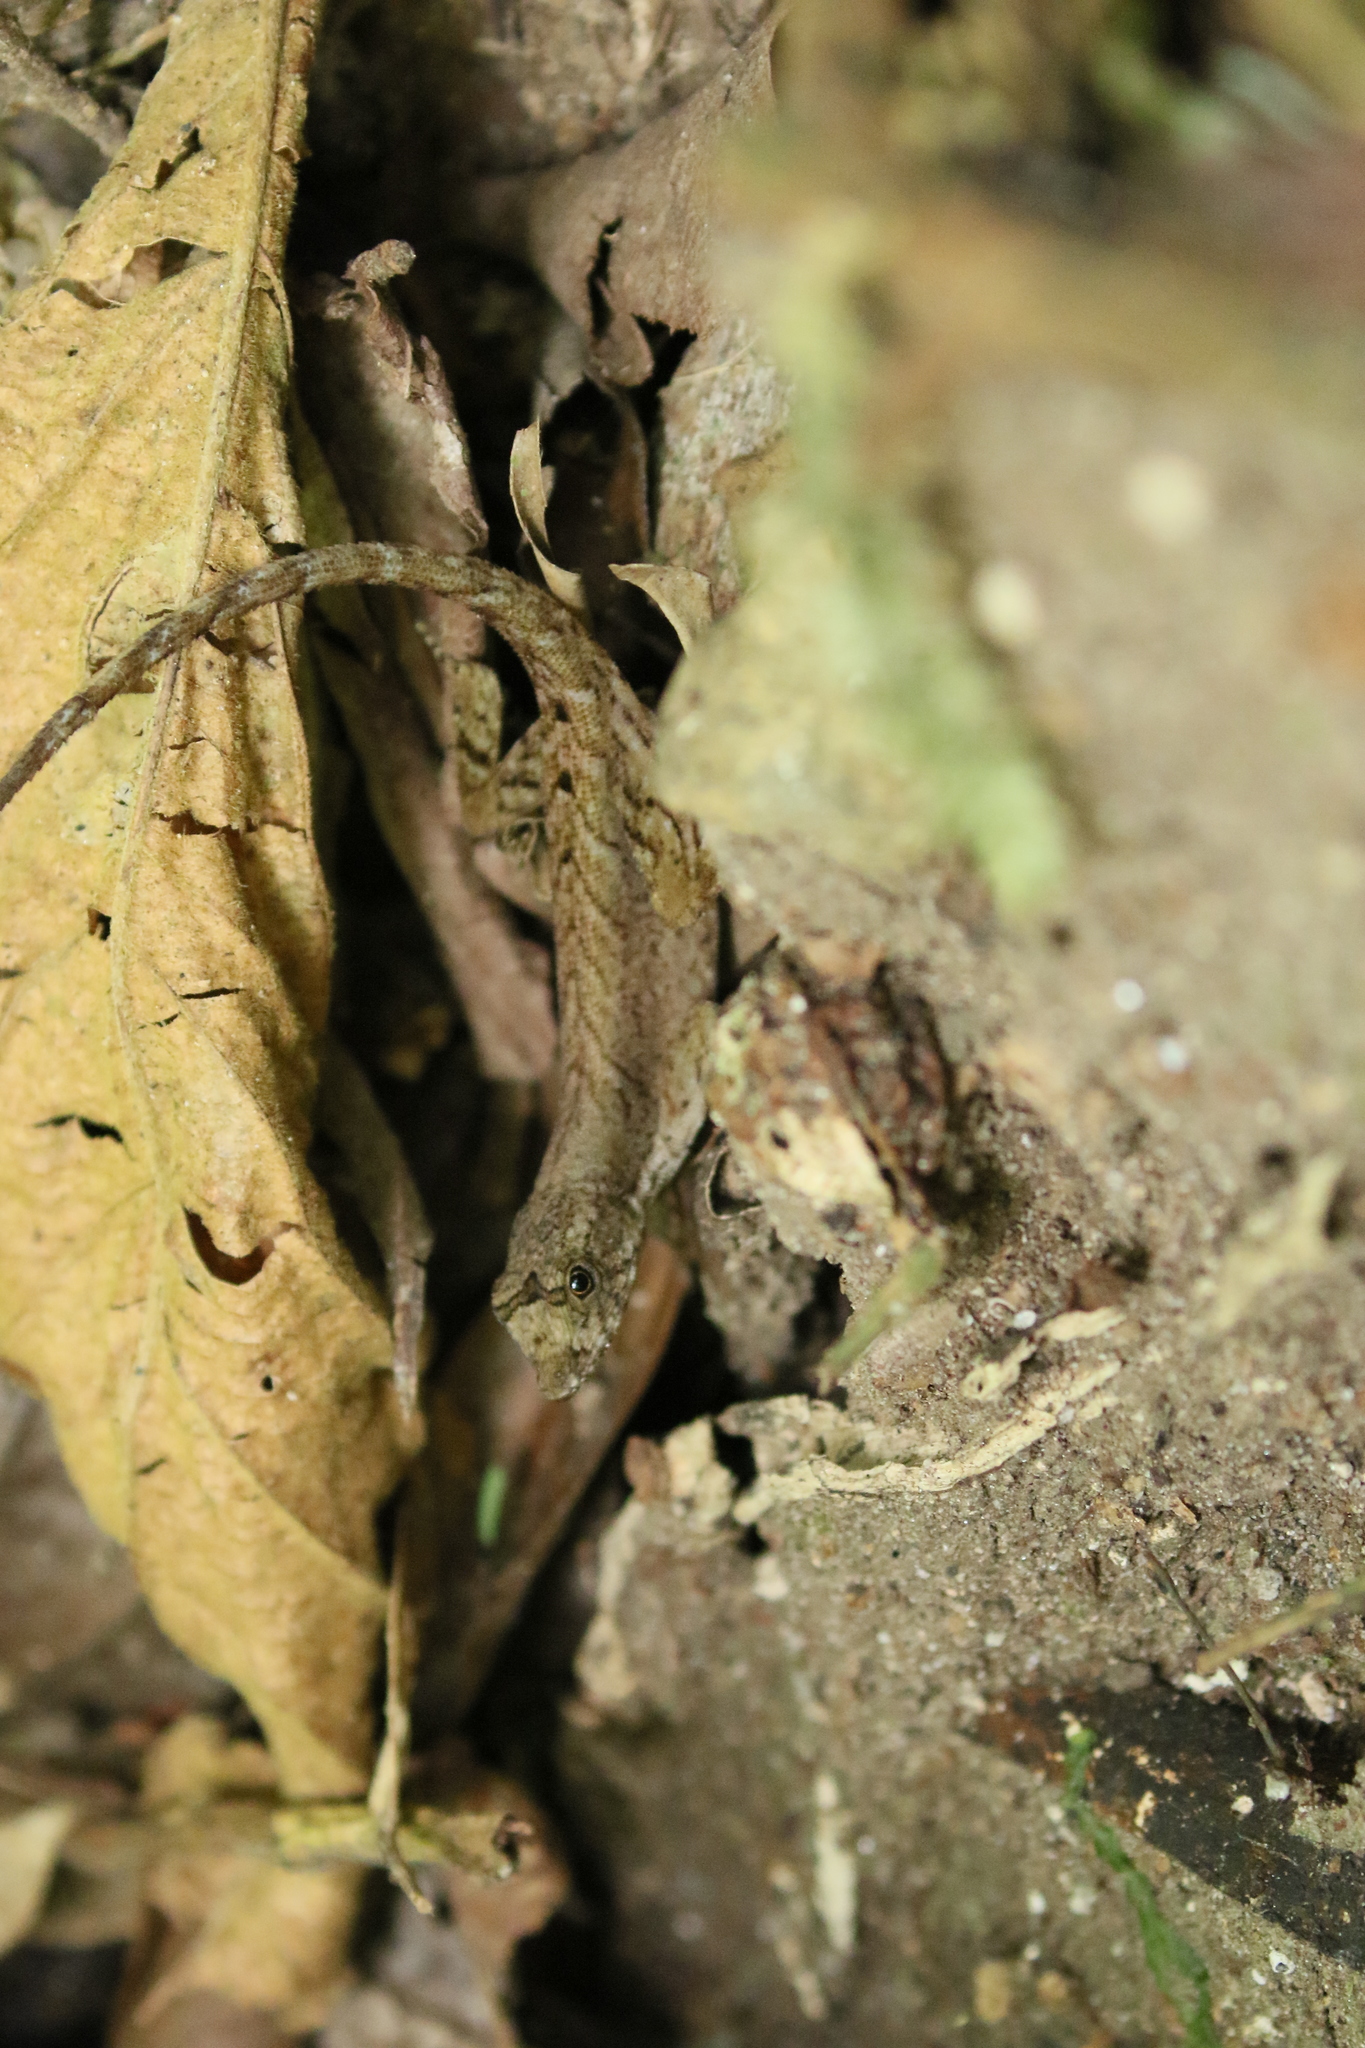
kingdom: Animalia
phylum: Chordata
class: Squamata
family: Dactyloidae
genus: Anolis
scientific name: Anolis humilis
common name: Humble anole
